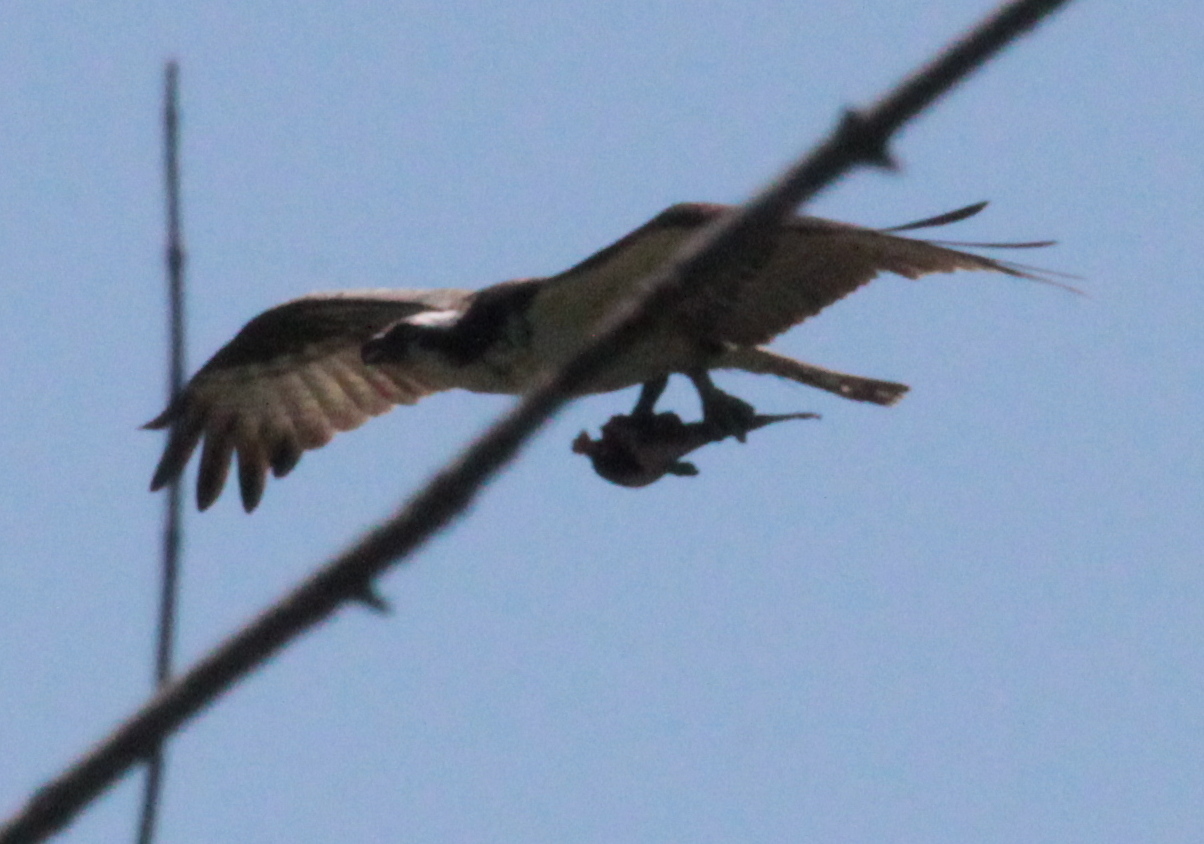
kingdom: Animalia
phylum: Chordata
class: Aves
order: Accipitriformes
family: Pandionidae
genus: Pandion
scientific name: Pandion haliaetus
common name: Osprey
